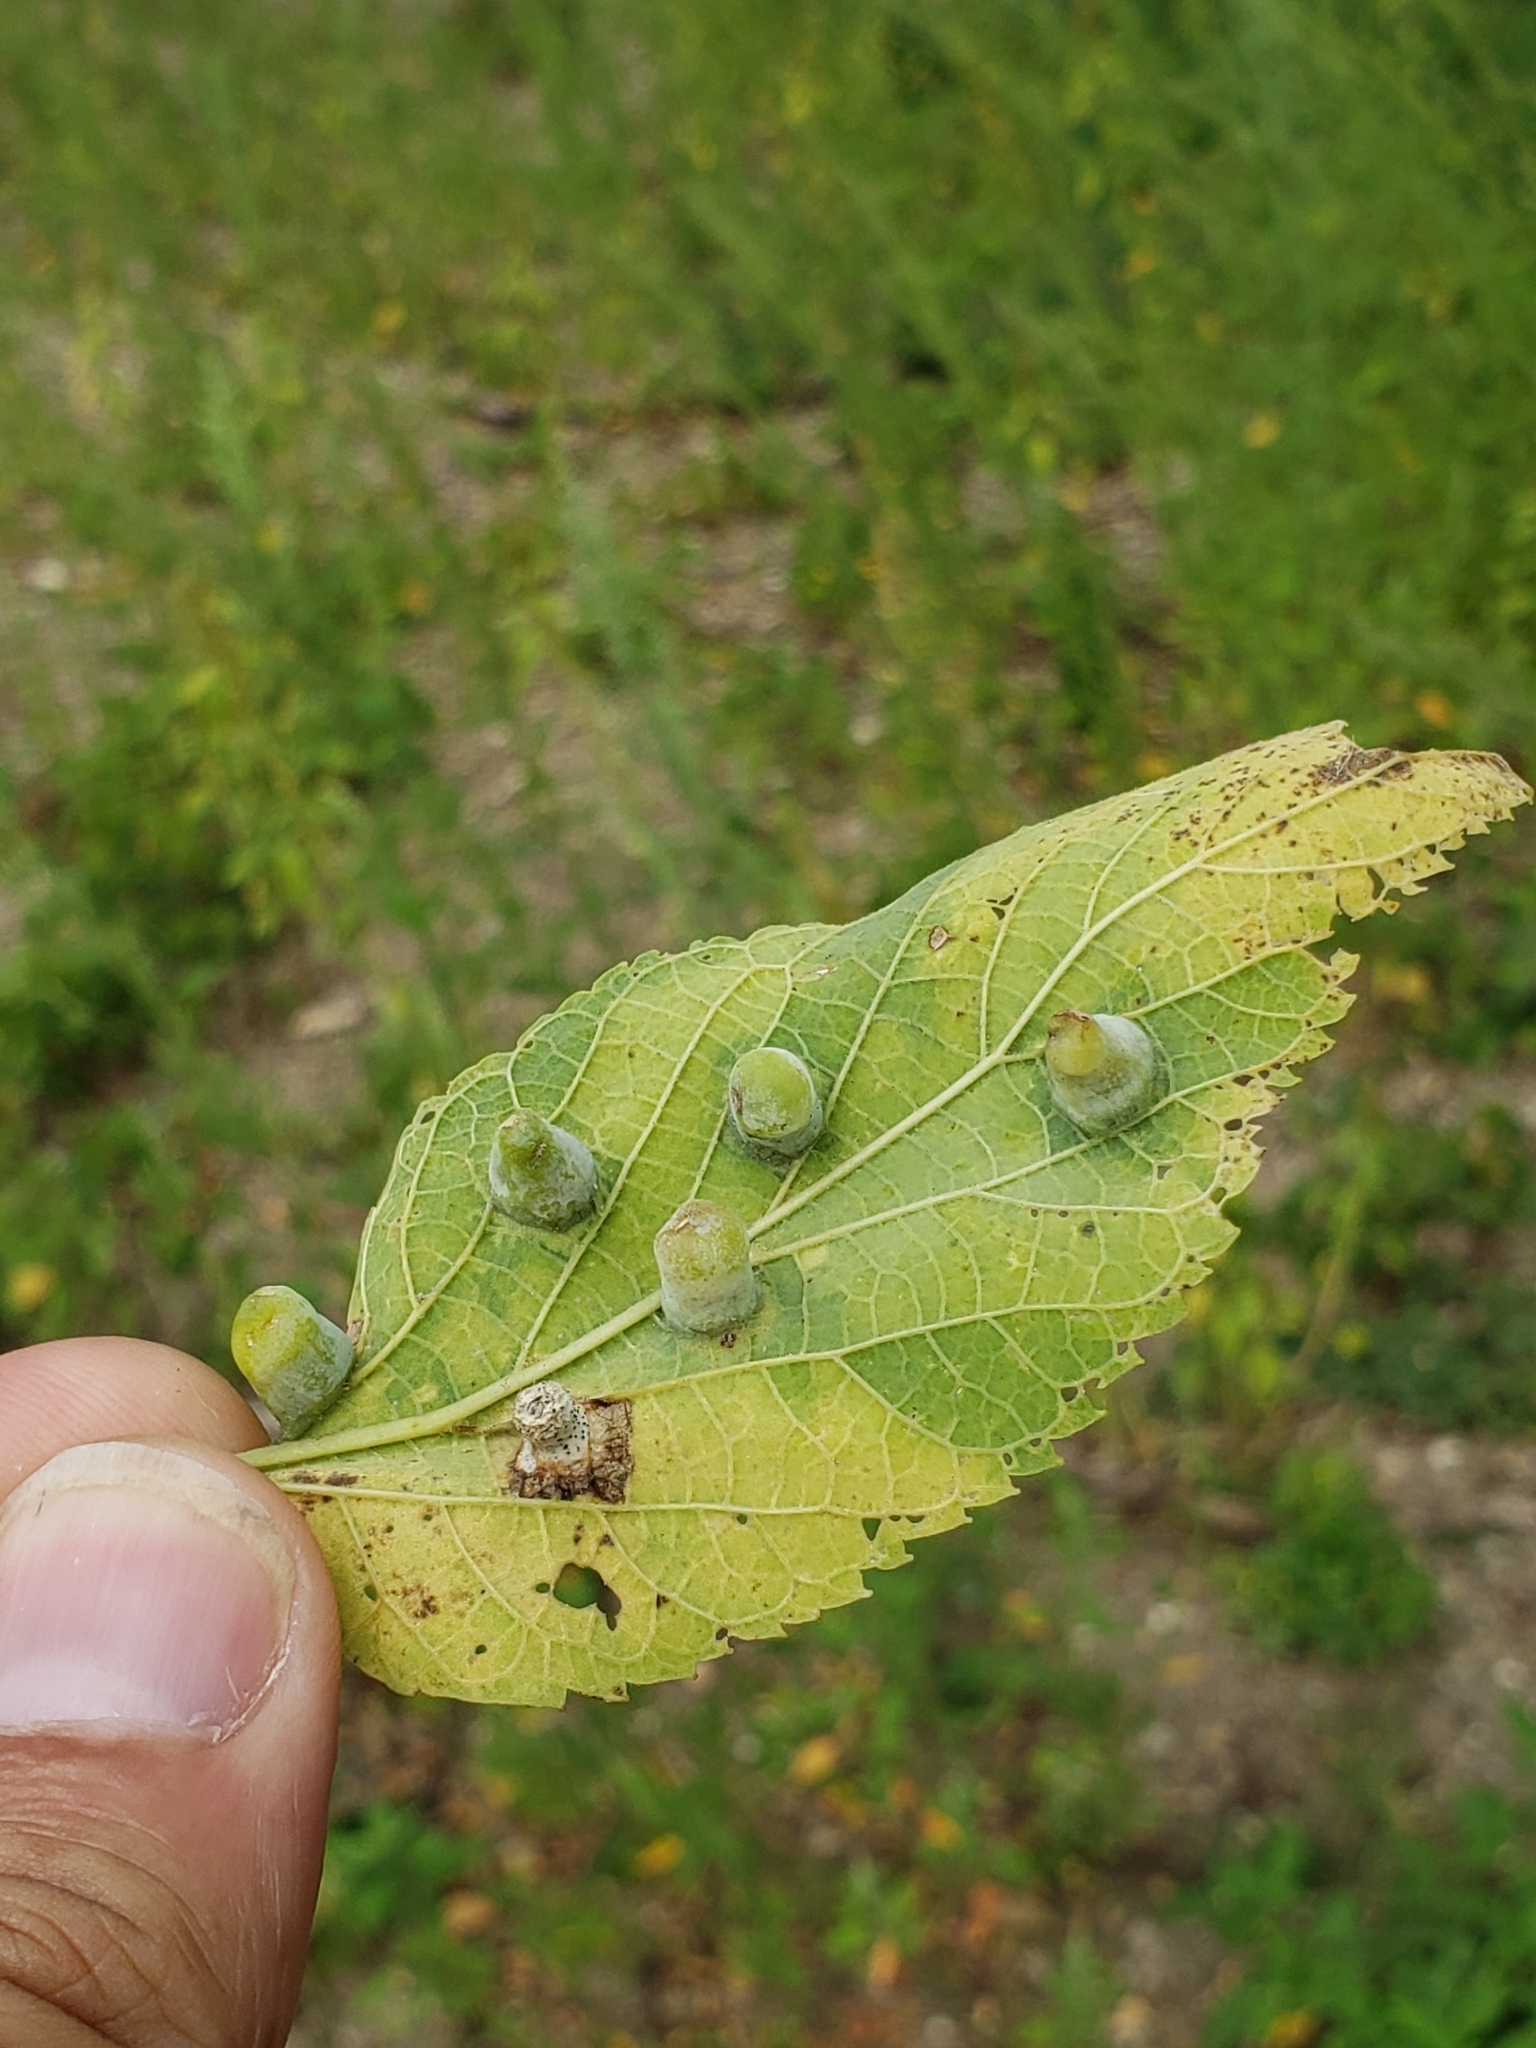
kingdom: Animalia
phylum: Arthropoda
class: Insecta
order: Hemiptera
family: Aphalaridae
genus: Pachypsylla
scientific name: Pachypsylla celtidismamma
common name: Hackberry nipplegall psyllid
